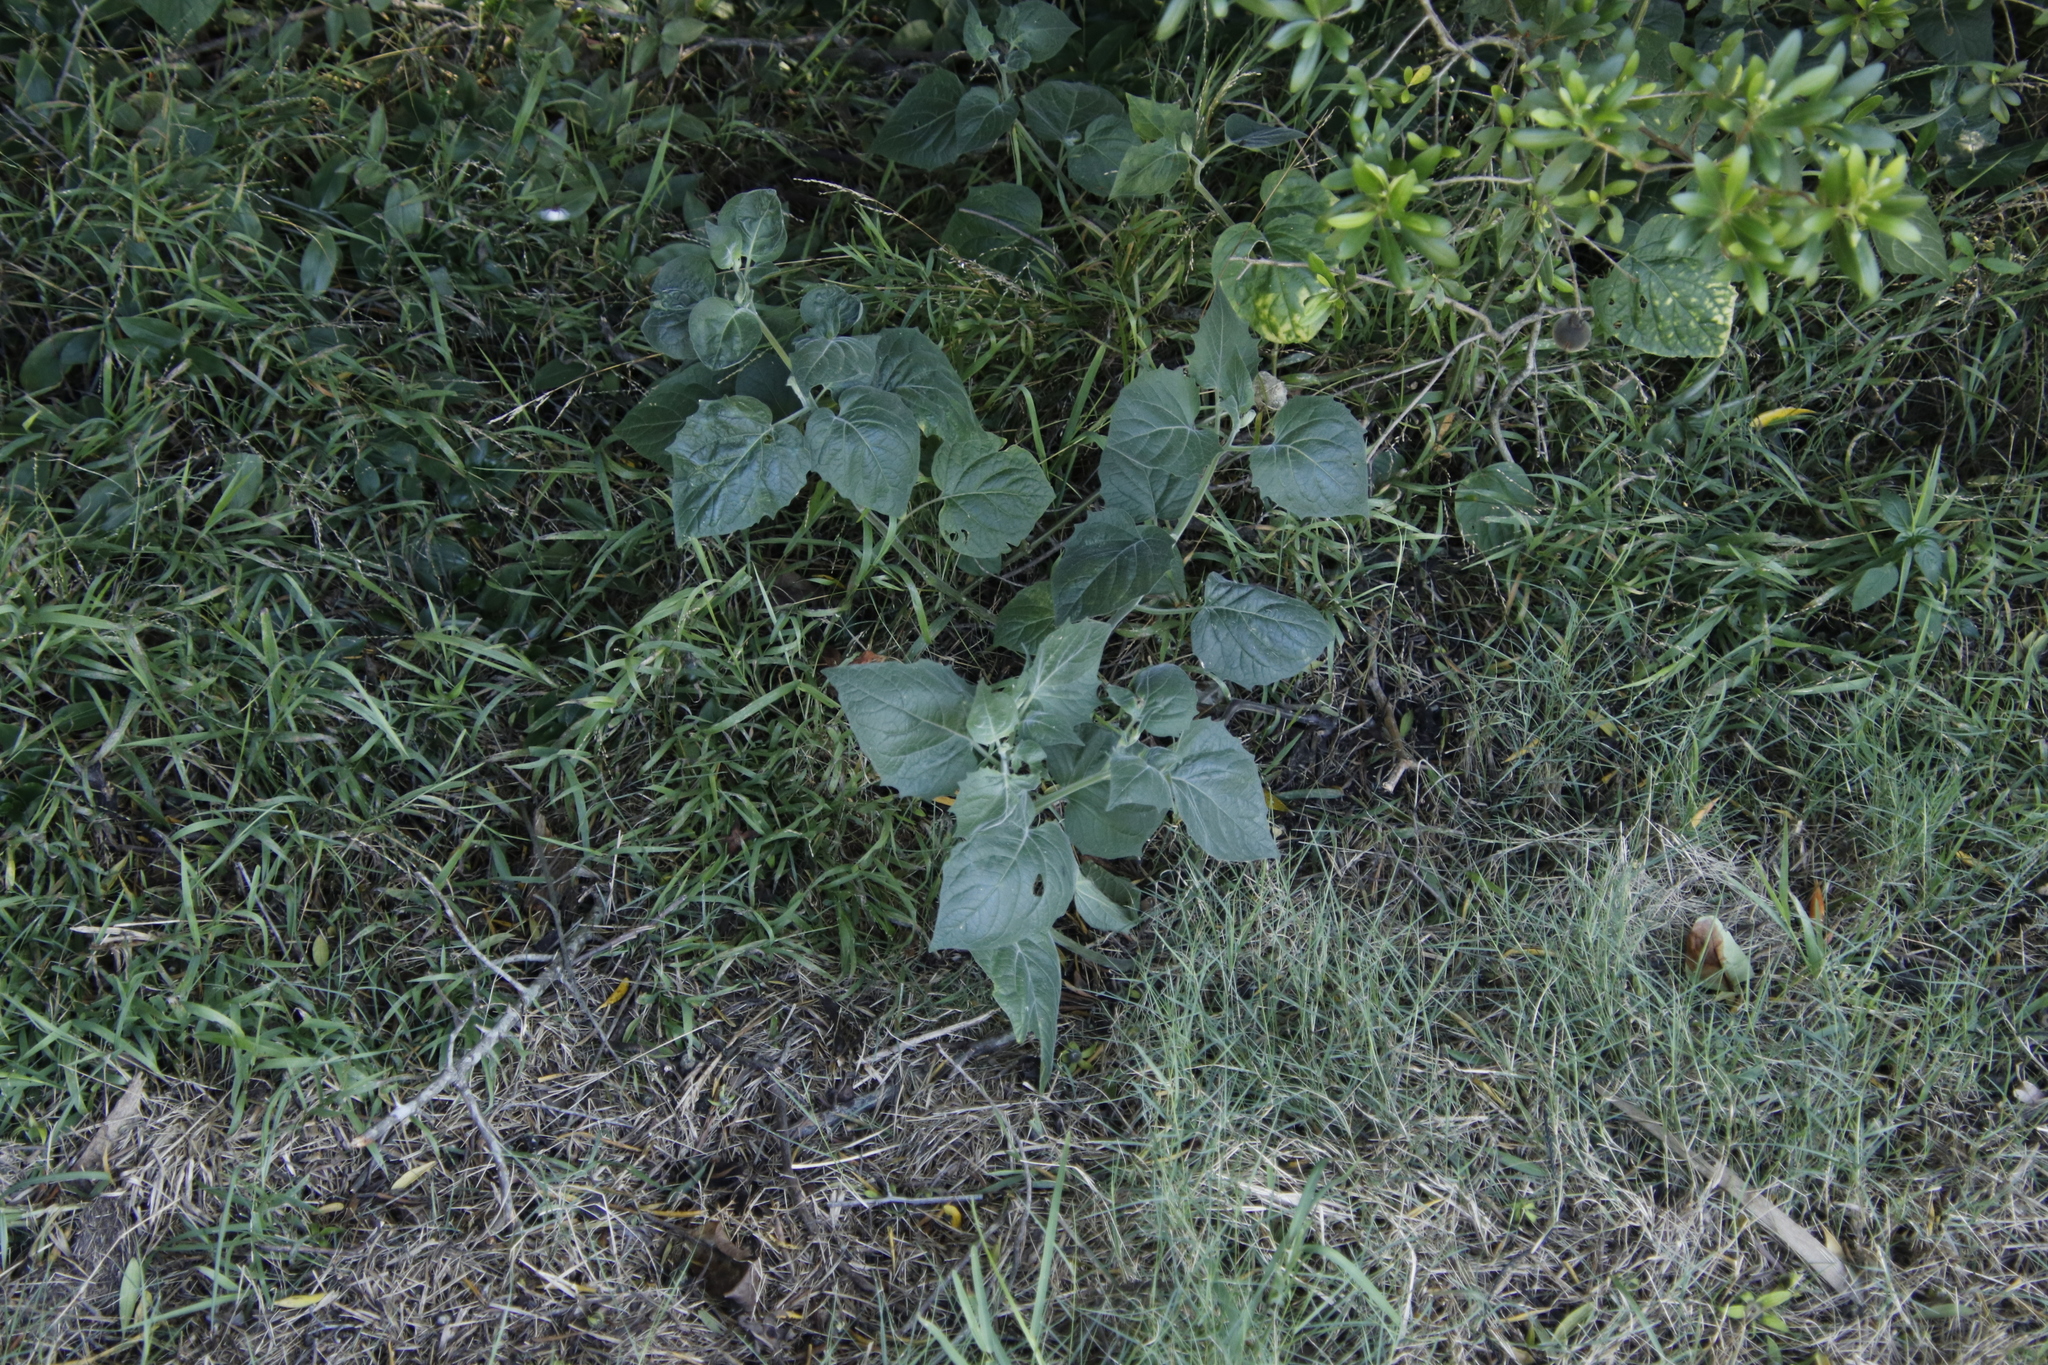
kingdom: Plantae
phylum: Tracheophyta
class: Magnoliopsida
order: Solanales
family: Solanaceae
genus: Physalis
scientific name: Physalis peruviana
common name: Cape-gooseberry
